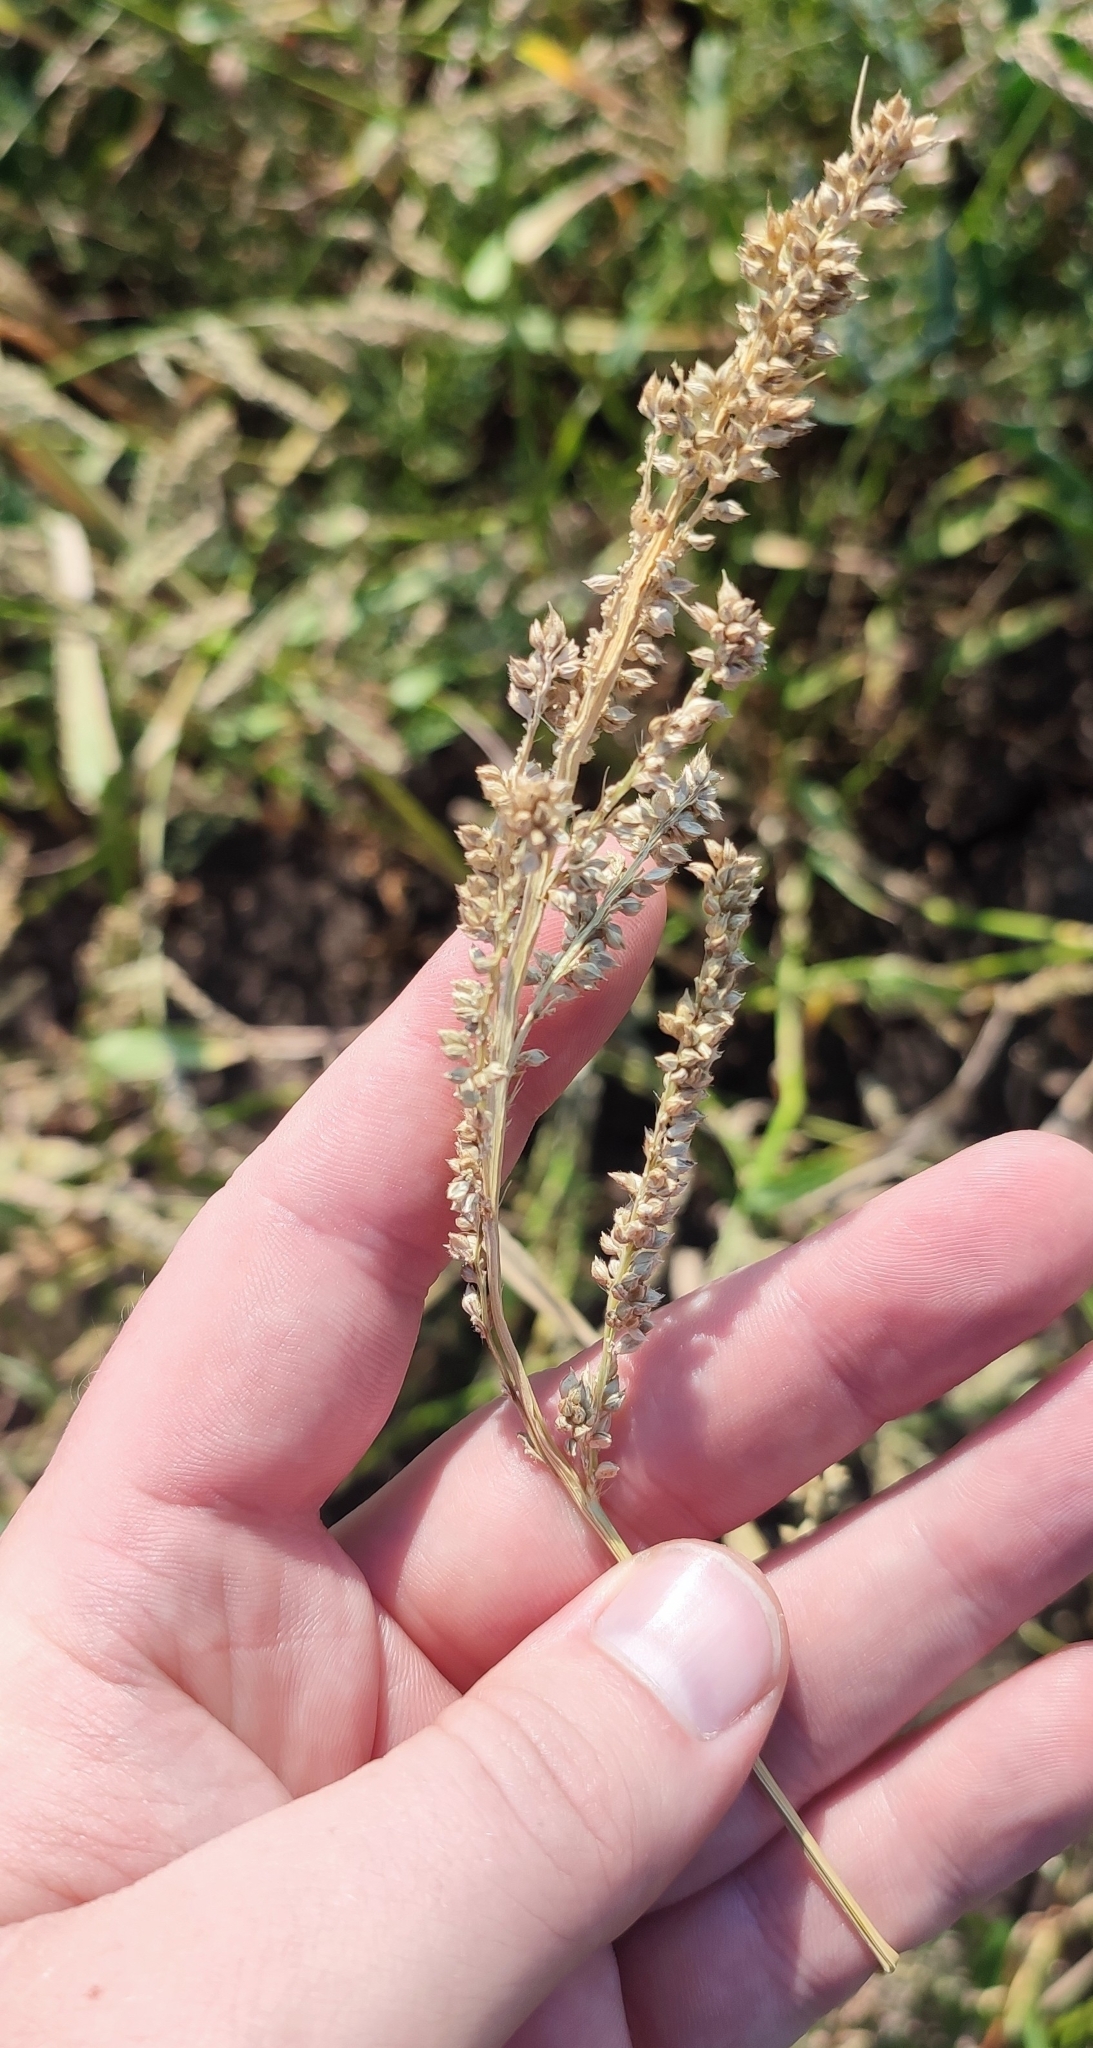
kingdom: Plantae
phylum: Tracheophyta
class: Liliopsida
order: Poales
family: Poaceae
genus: Echinochloa
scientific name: Echinochloa crus-galli
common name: Cockspur
